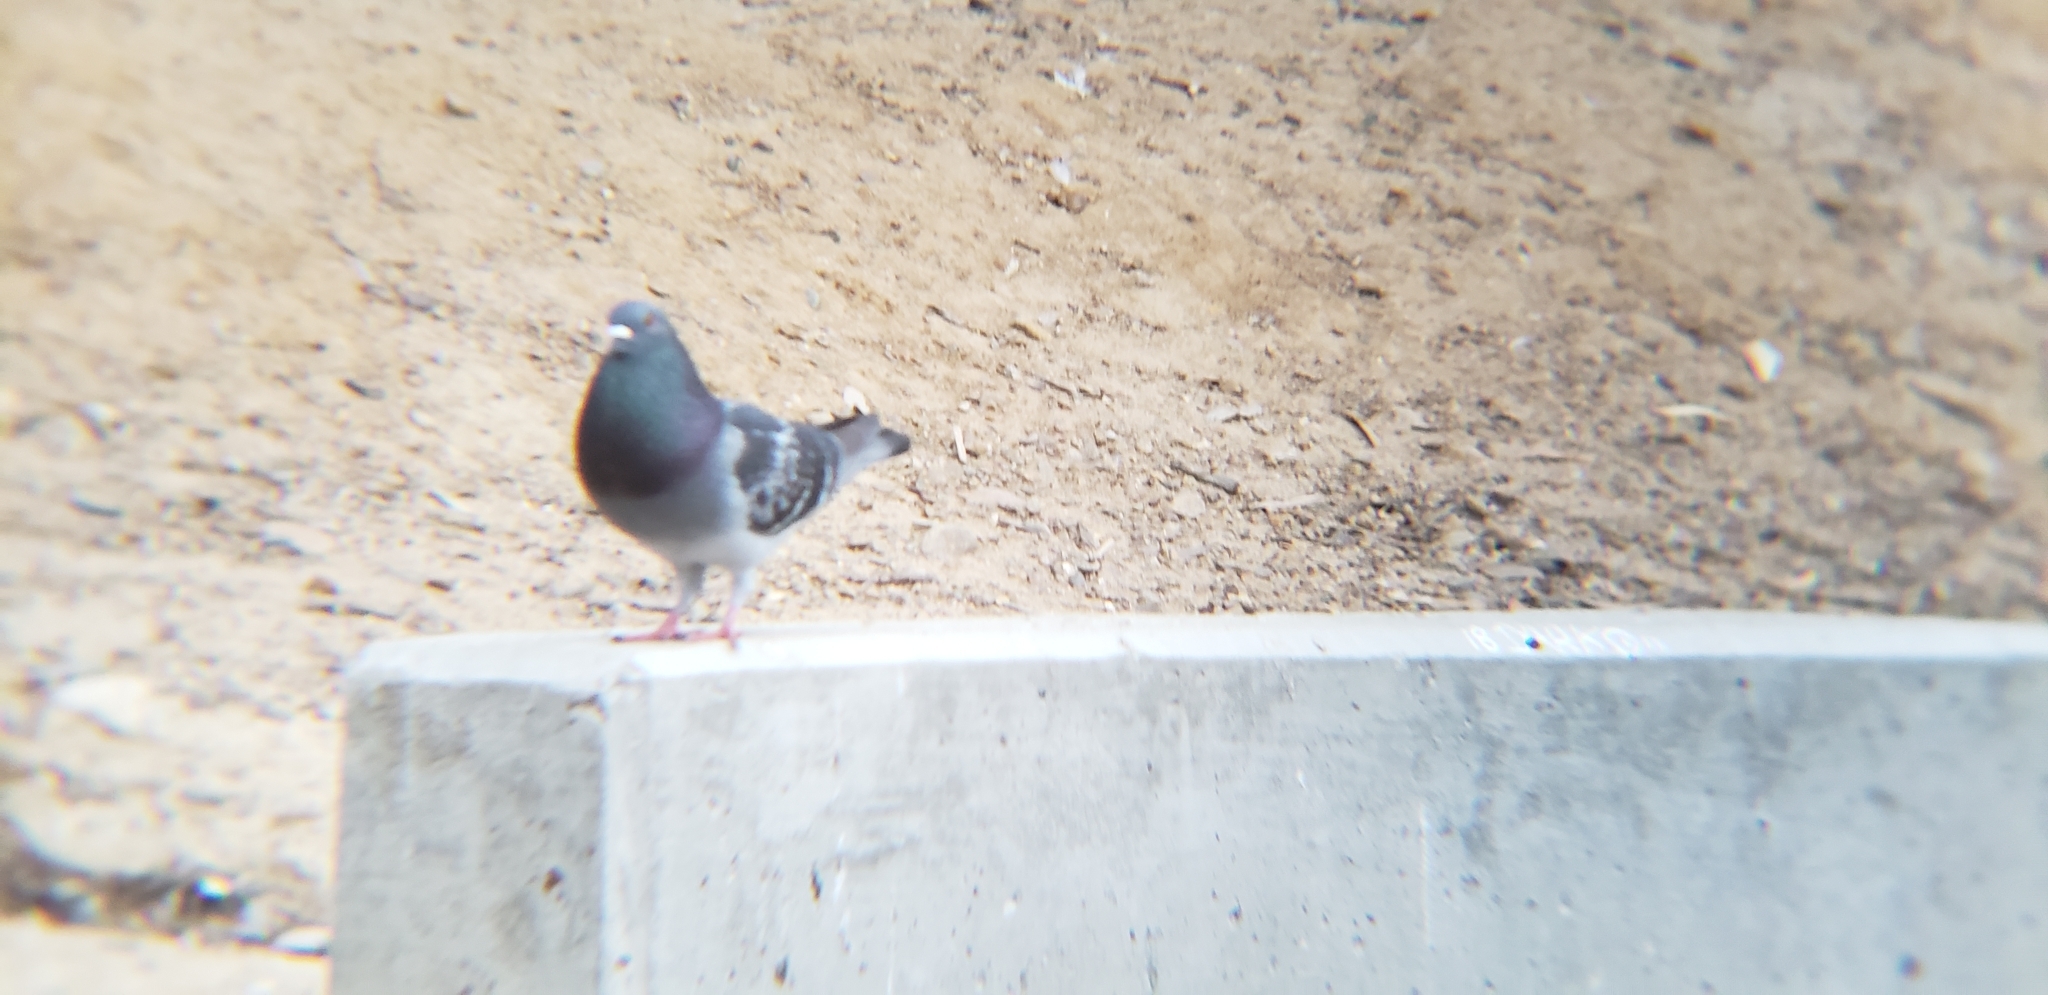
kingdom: Animalia
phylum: Chordata
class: Aves
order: Columbiformes
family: Columbidae
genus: Columba
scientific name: Columba livia
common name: Rock pigeon
